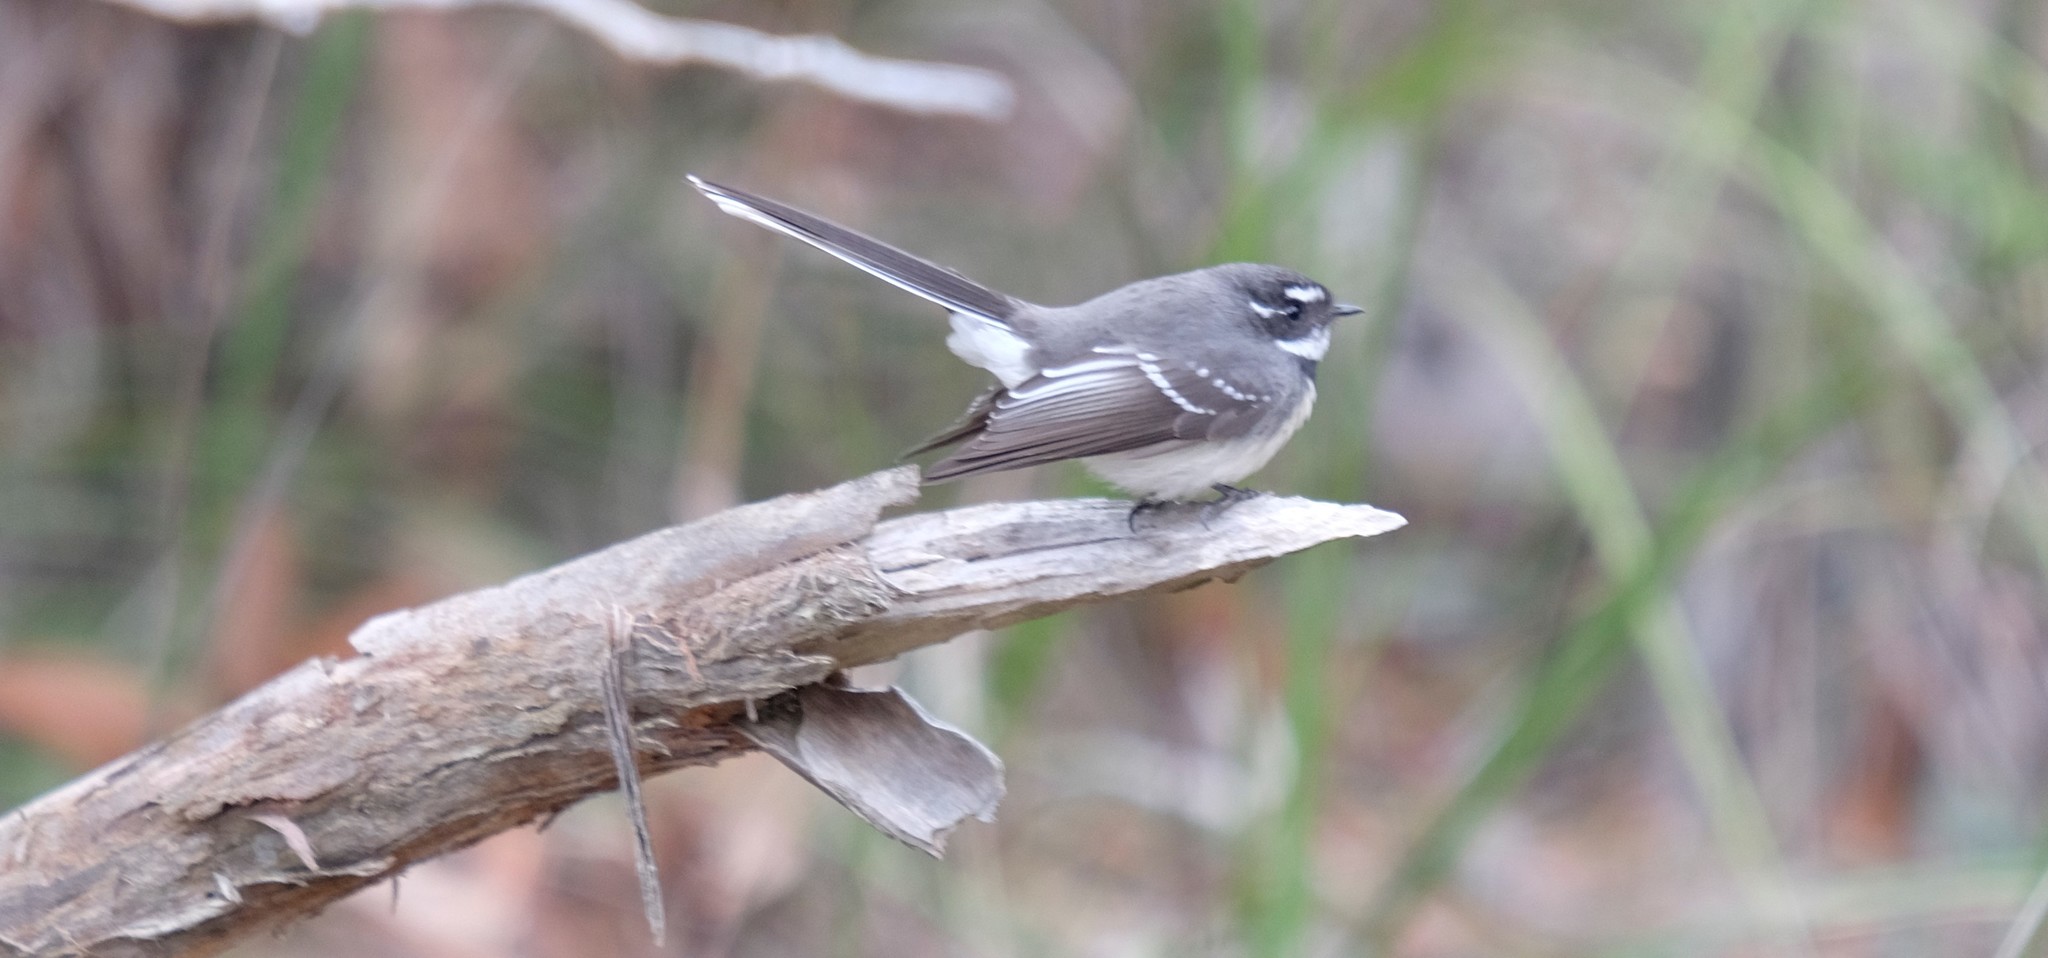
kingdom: Animalia
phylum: Chordata
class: Aves
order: Passeriformes
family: Rhipiduridae
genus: Rhipidura
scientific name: Rhipidura albiscapa
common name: Grey fantail
